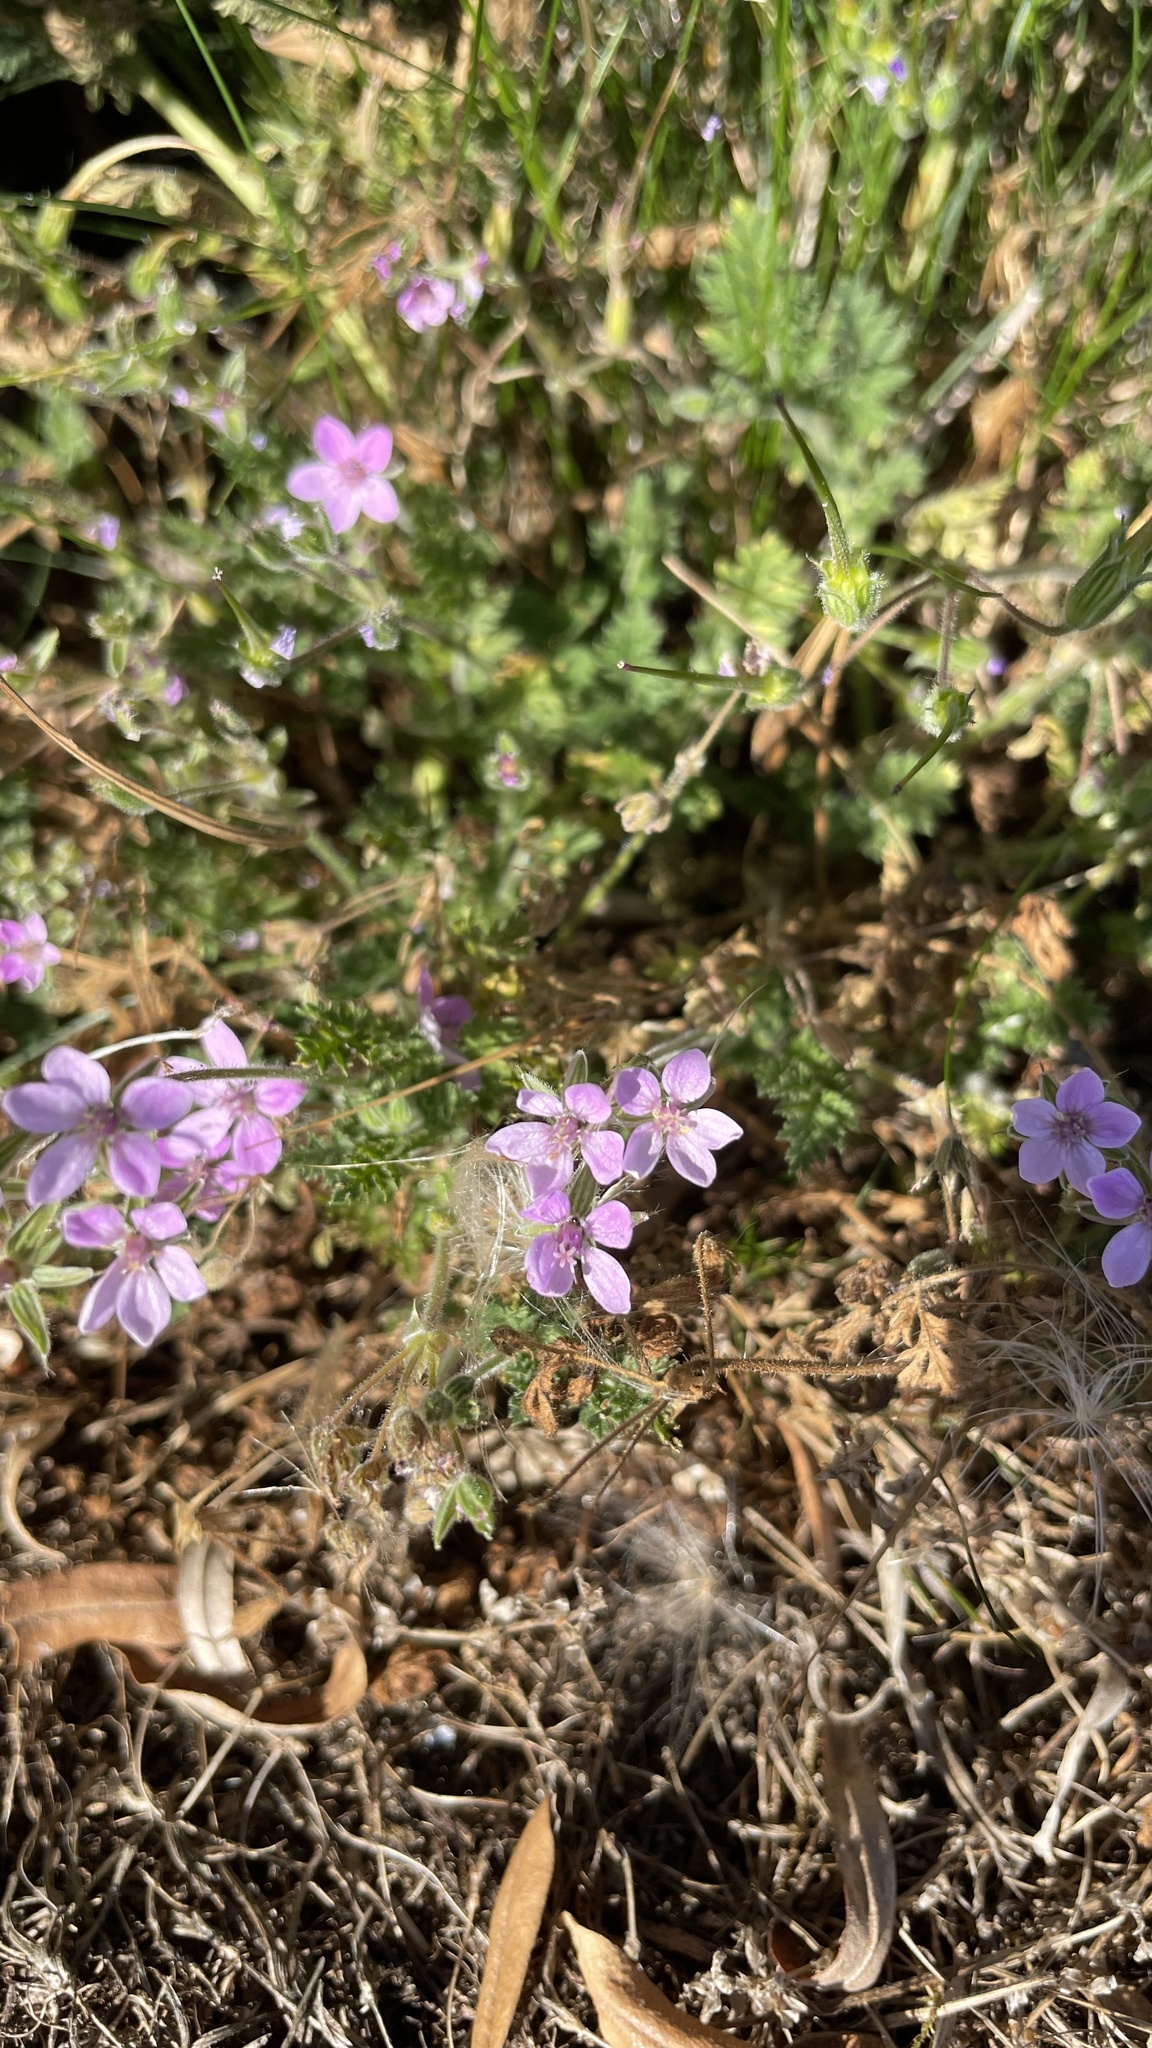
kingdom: Plantae
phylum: Tracheophyta
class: Magnoliopsida
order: Geraniales
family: Geraniaceae
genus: Erodium
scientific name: Erodium cicutarium
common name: Common stork's-bill
